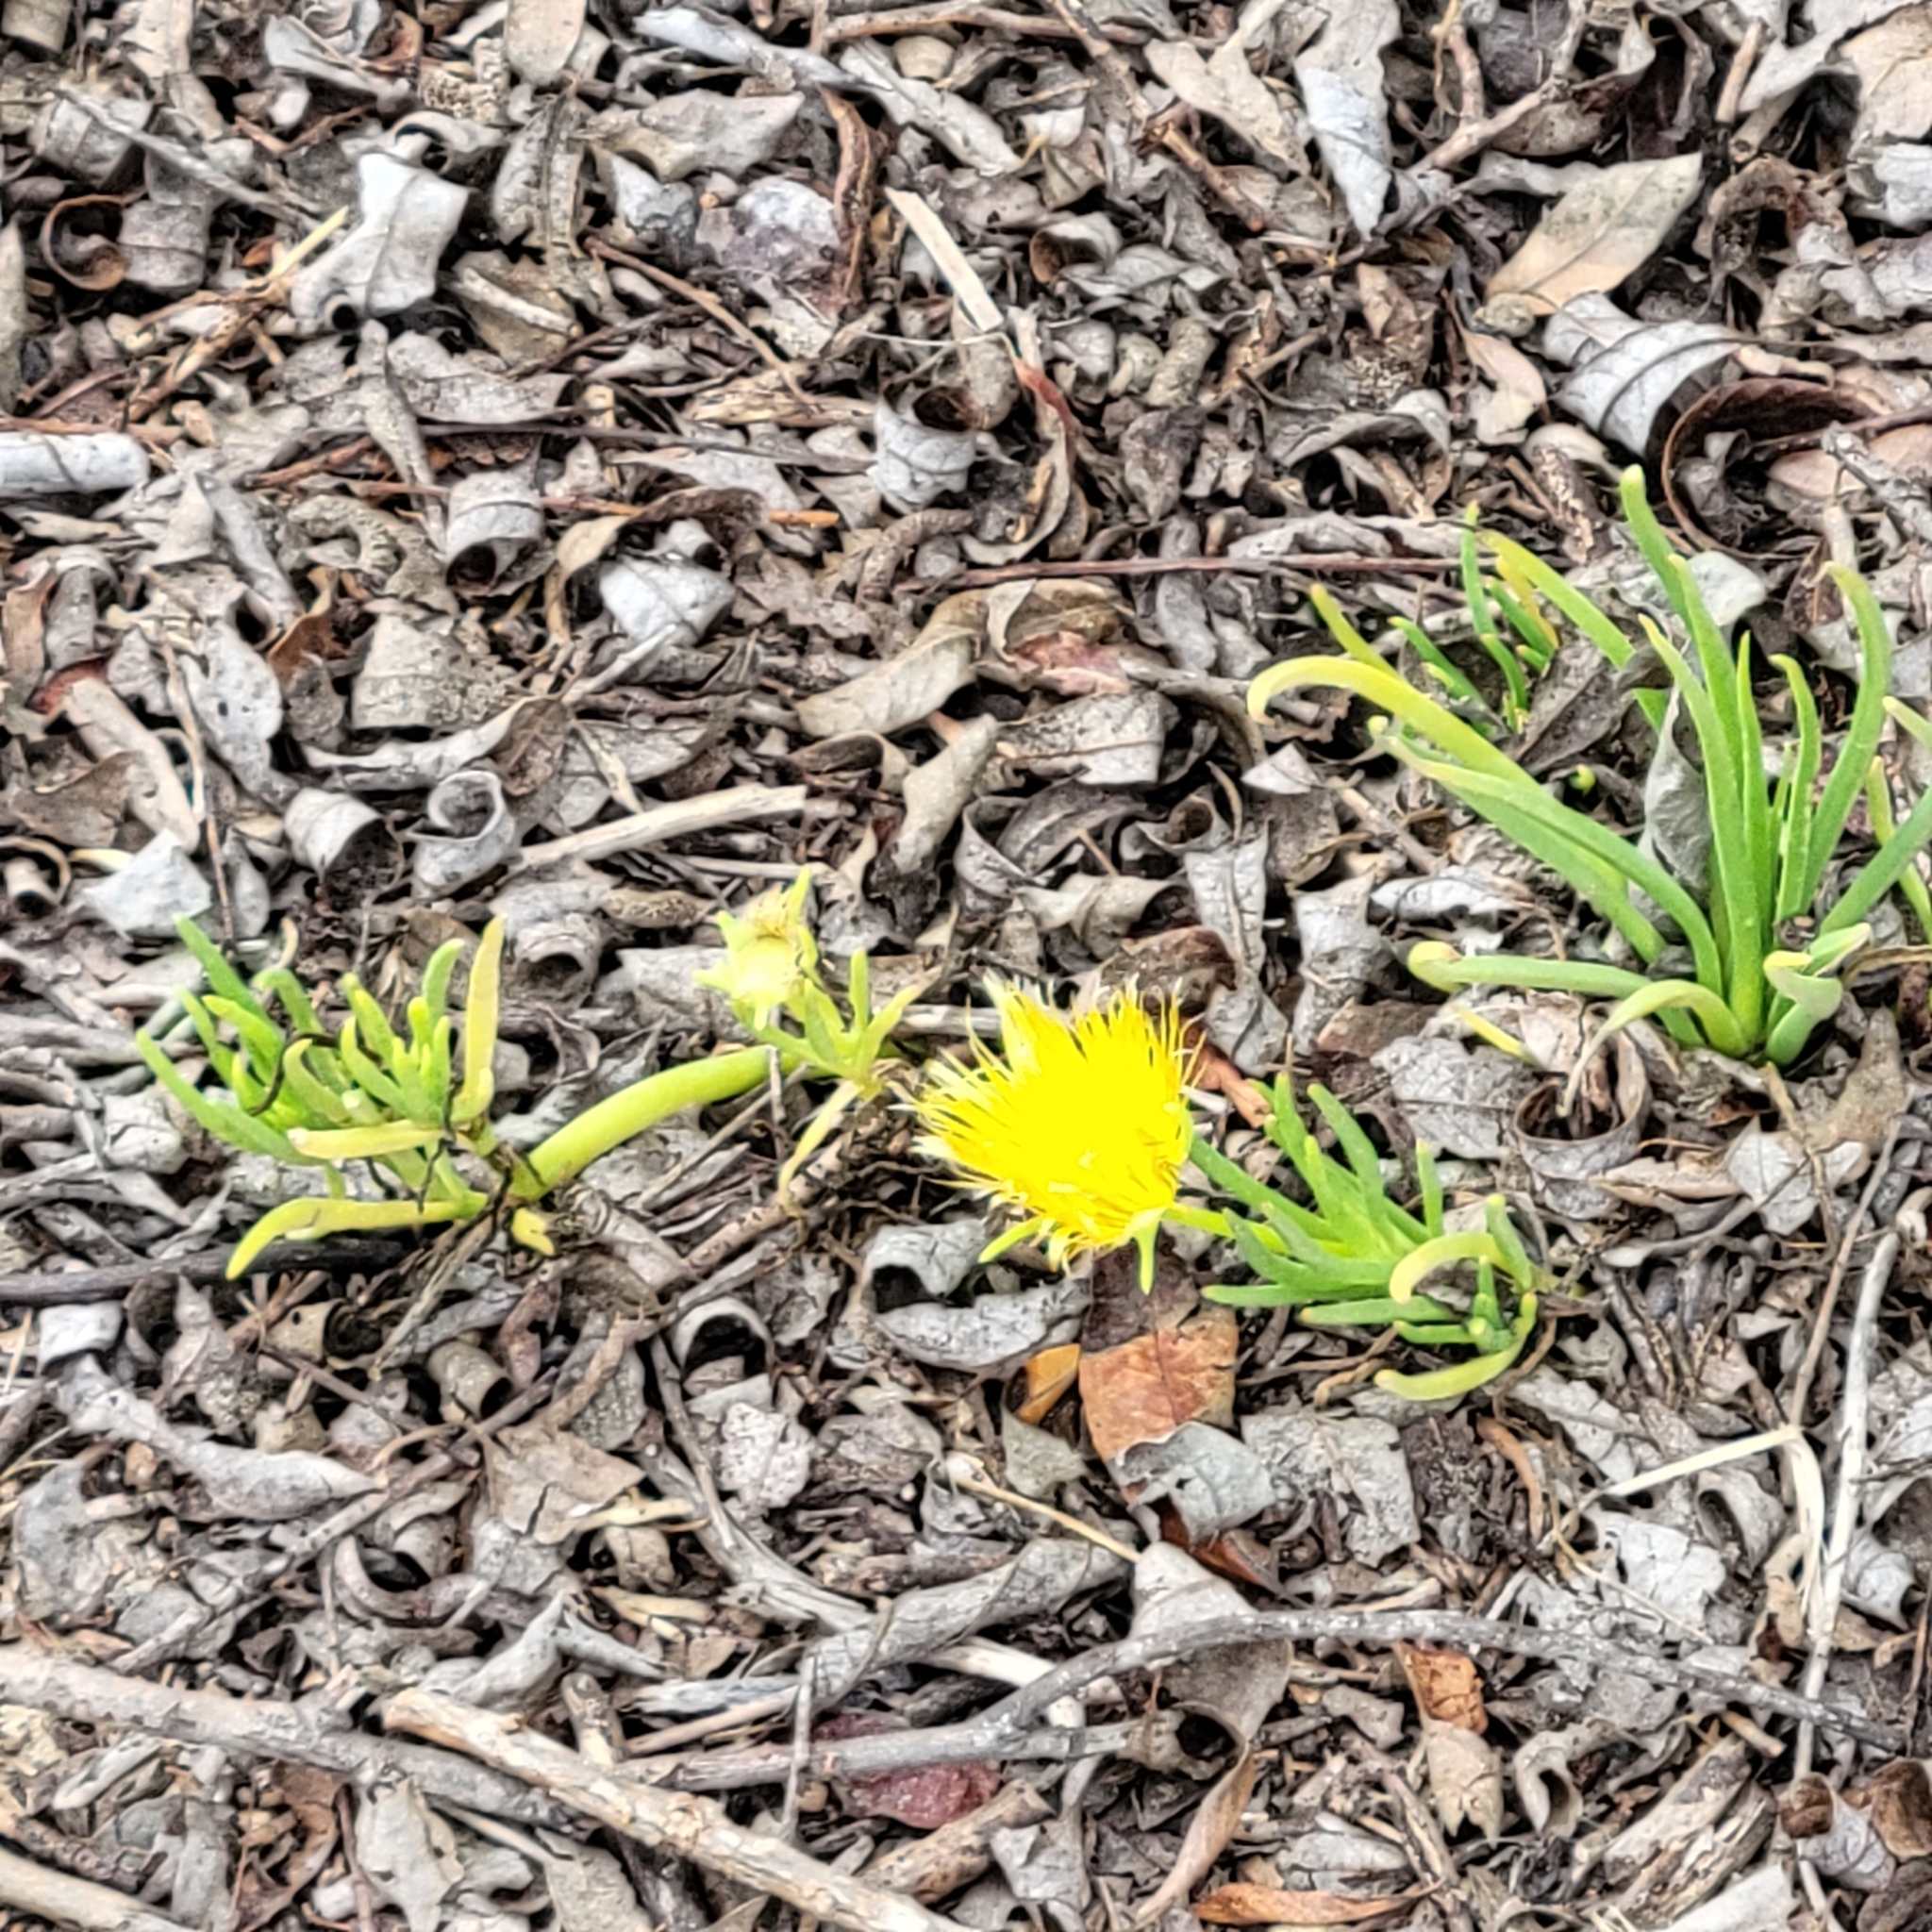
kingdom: Plantae
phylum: Tracheophyta
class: Magnoliopsida
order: Caryophyllales
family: Aizoaceae
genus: Conicosia
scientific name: Conicosia pugioniformis
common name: Narrow-leaved iceplant
